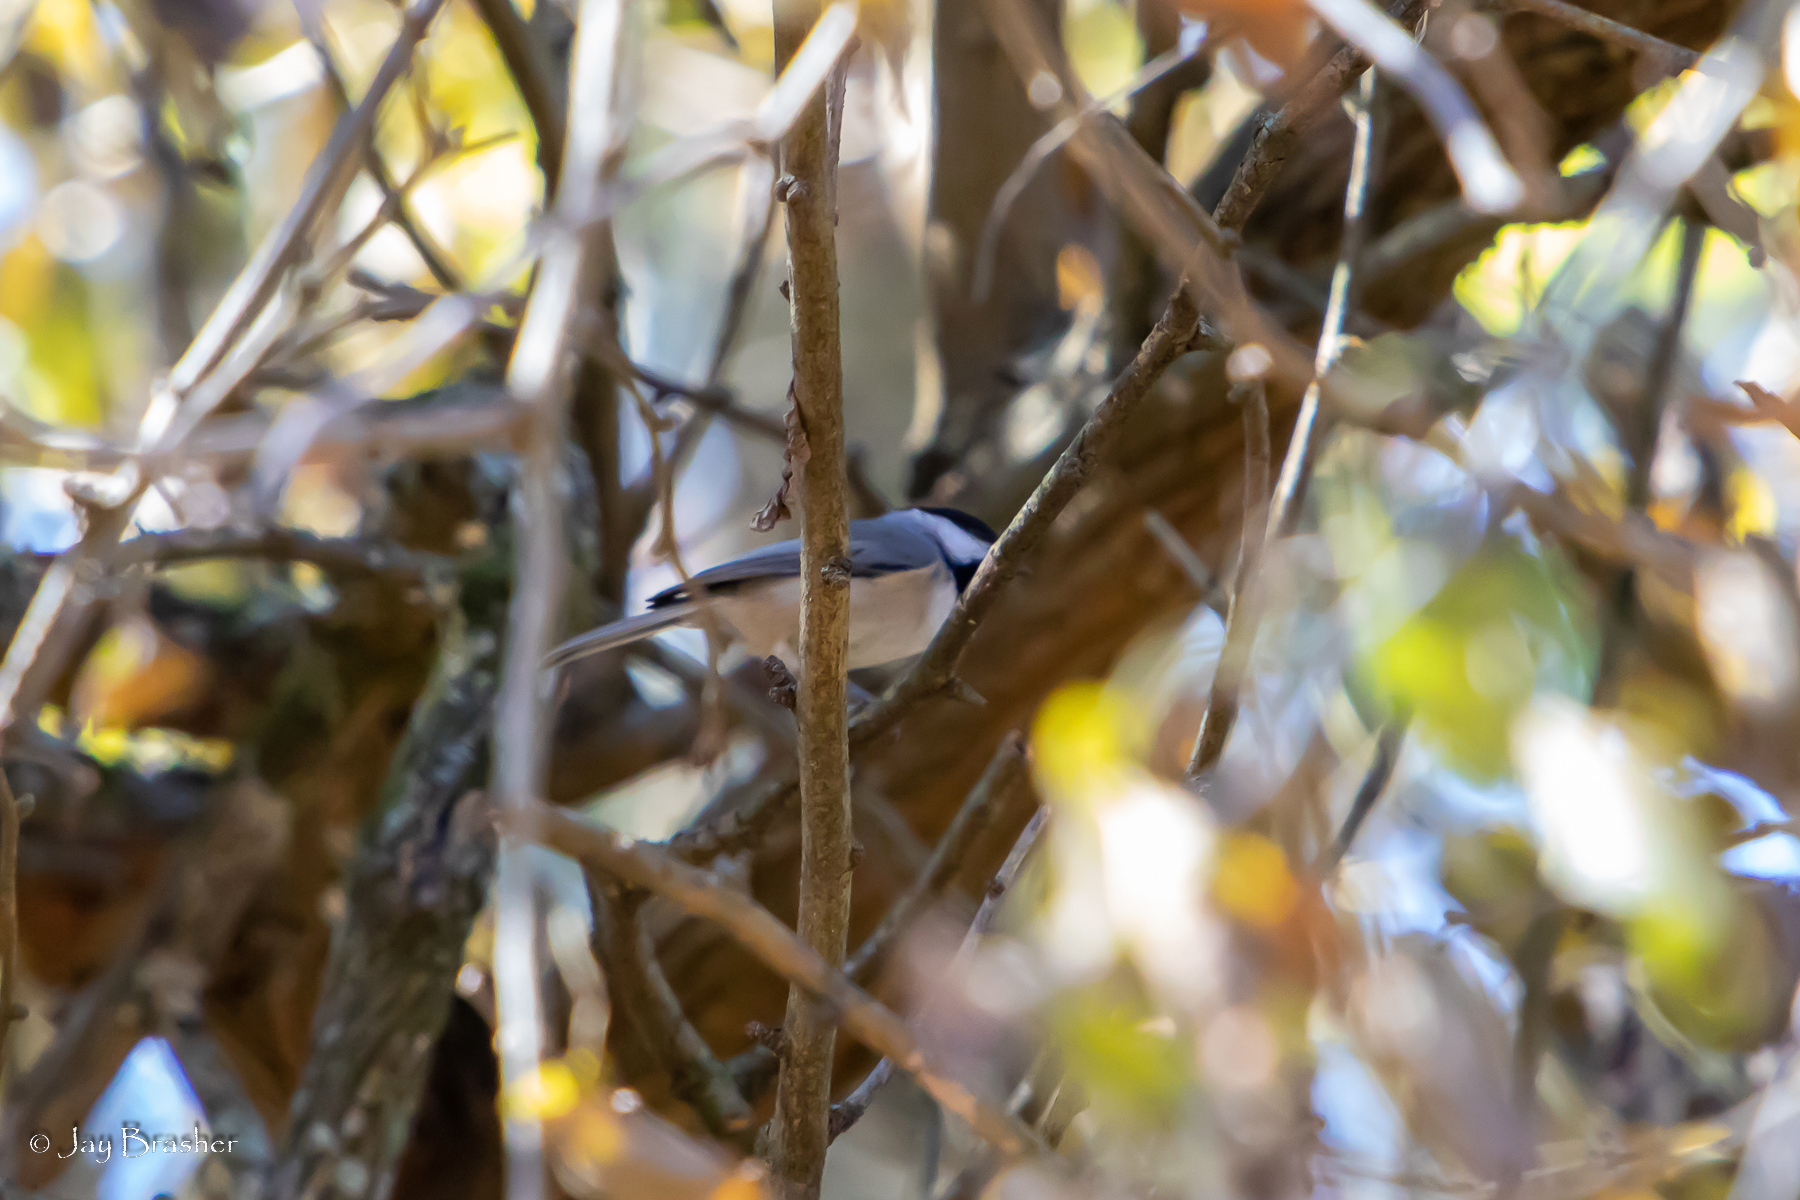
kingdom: Animalia
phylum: Chordata
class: Aves
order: Passeriformes
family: Paridae
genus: Poecile
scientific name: Poecile carolinensis
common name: Carolina chickadee
